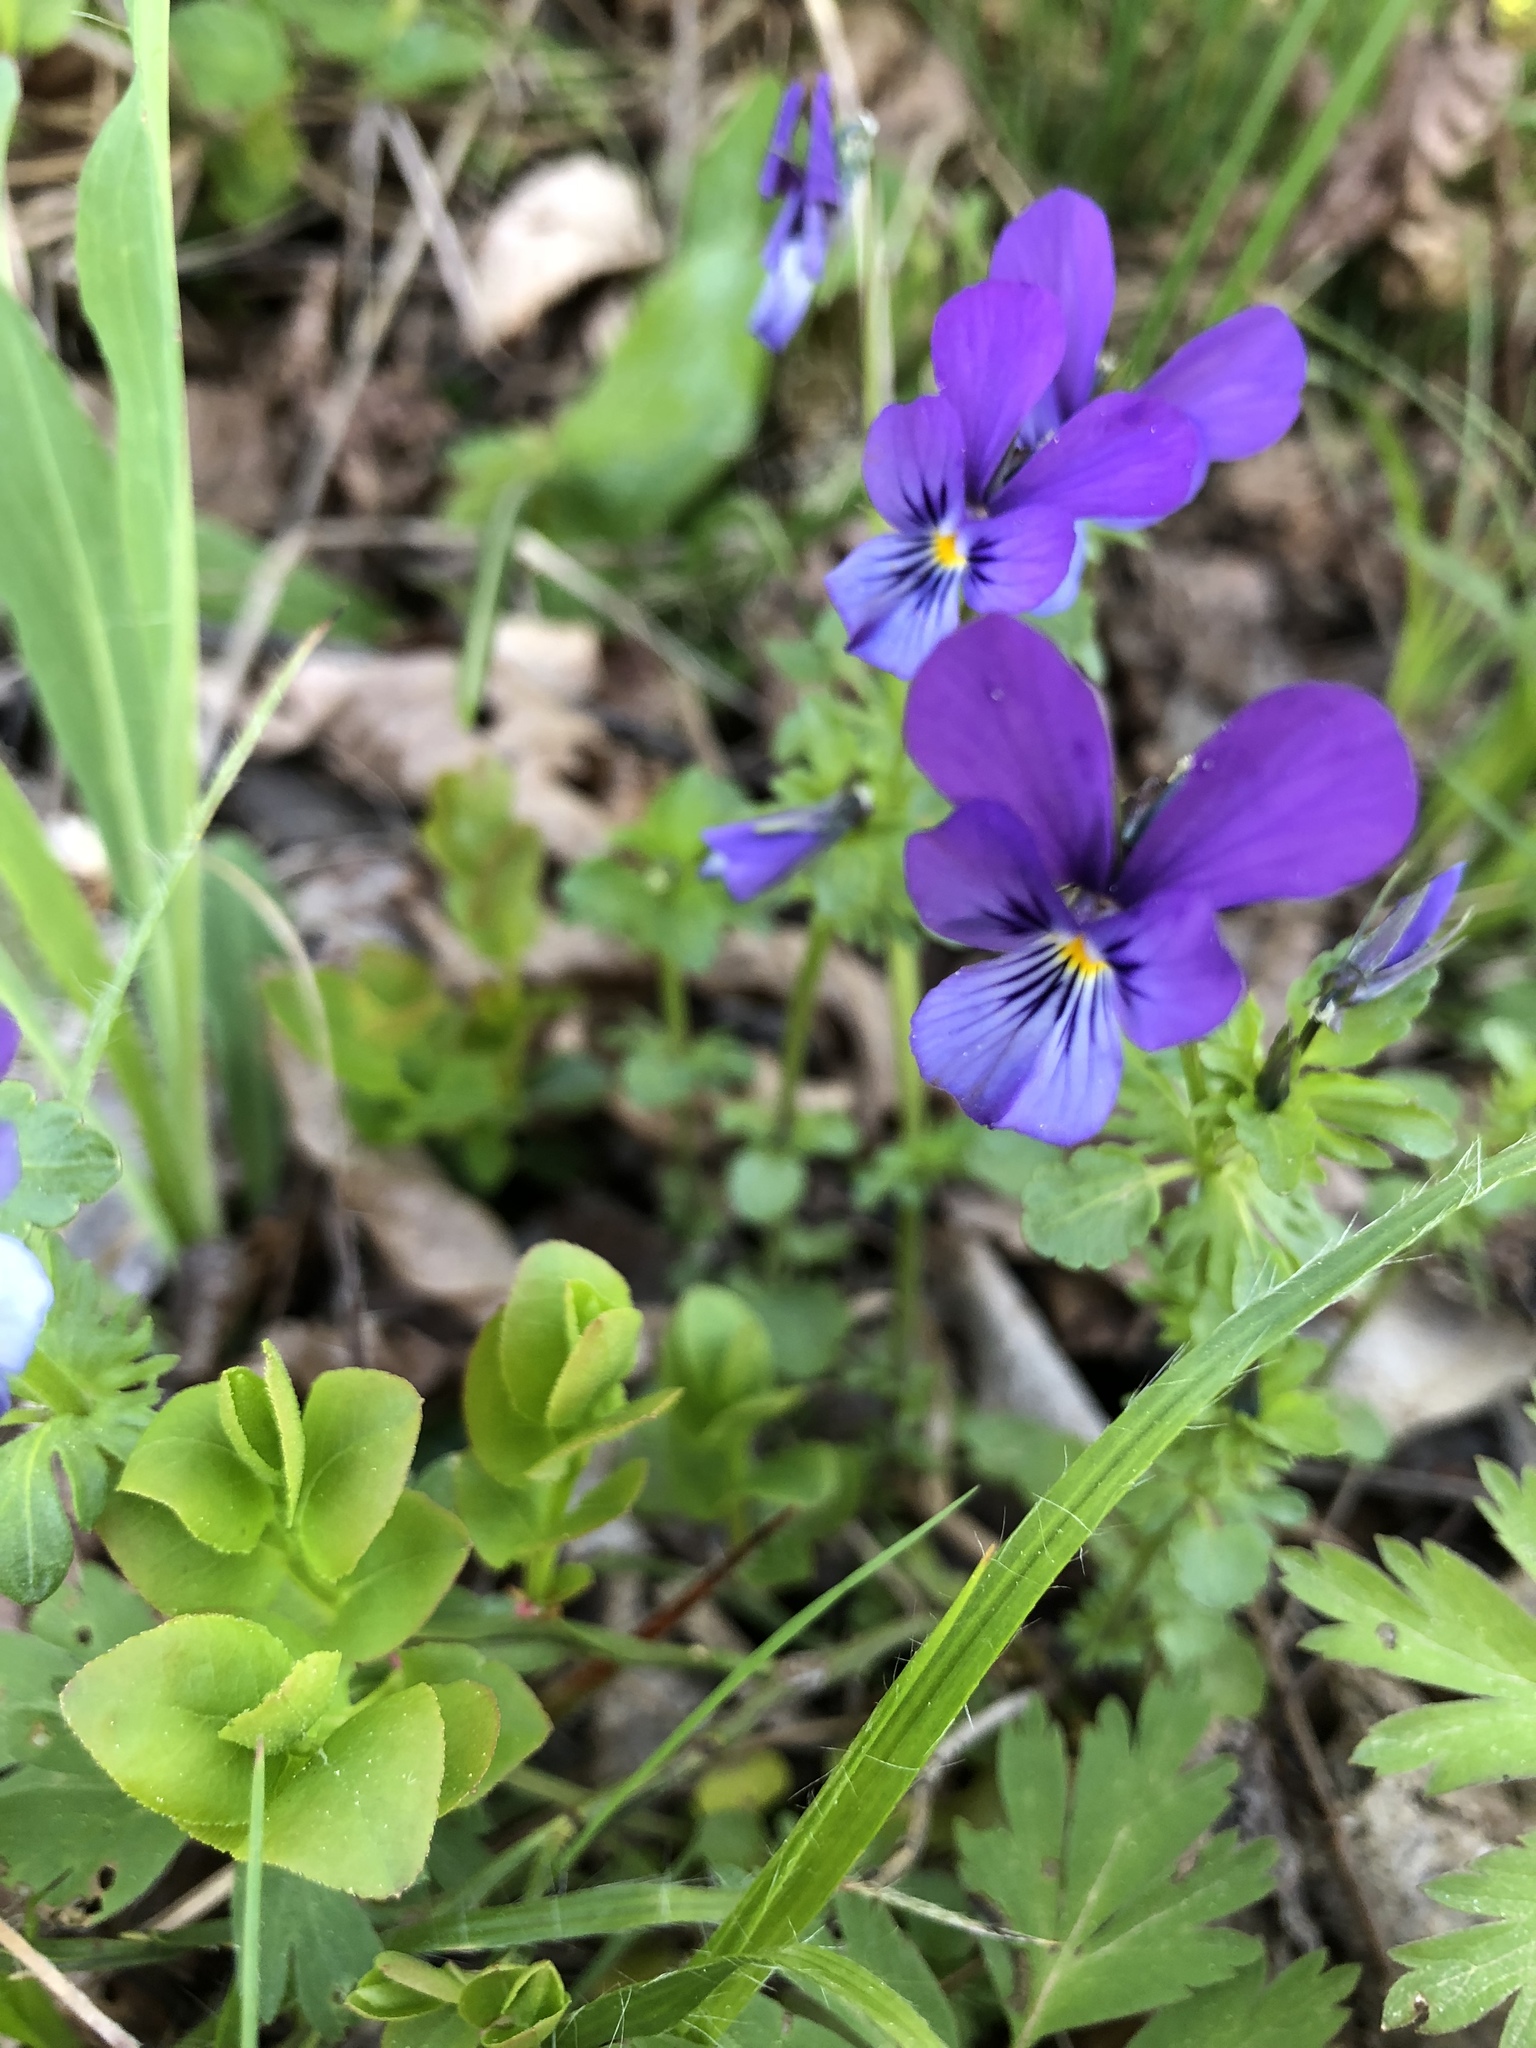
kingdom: Plantae
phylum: Tracheophyta
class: Magnoliopsida
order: Malpighiales
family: Violaceae
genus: Viola
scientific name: Viola declinata
